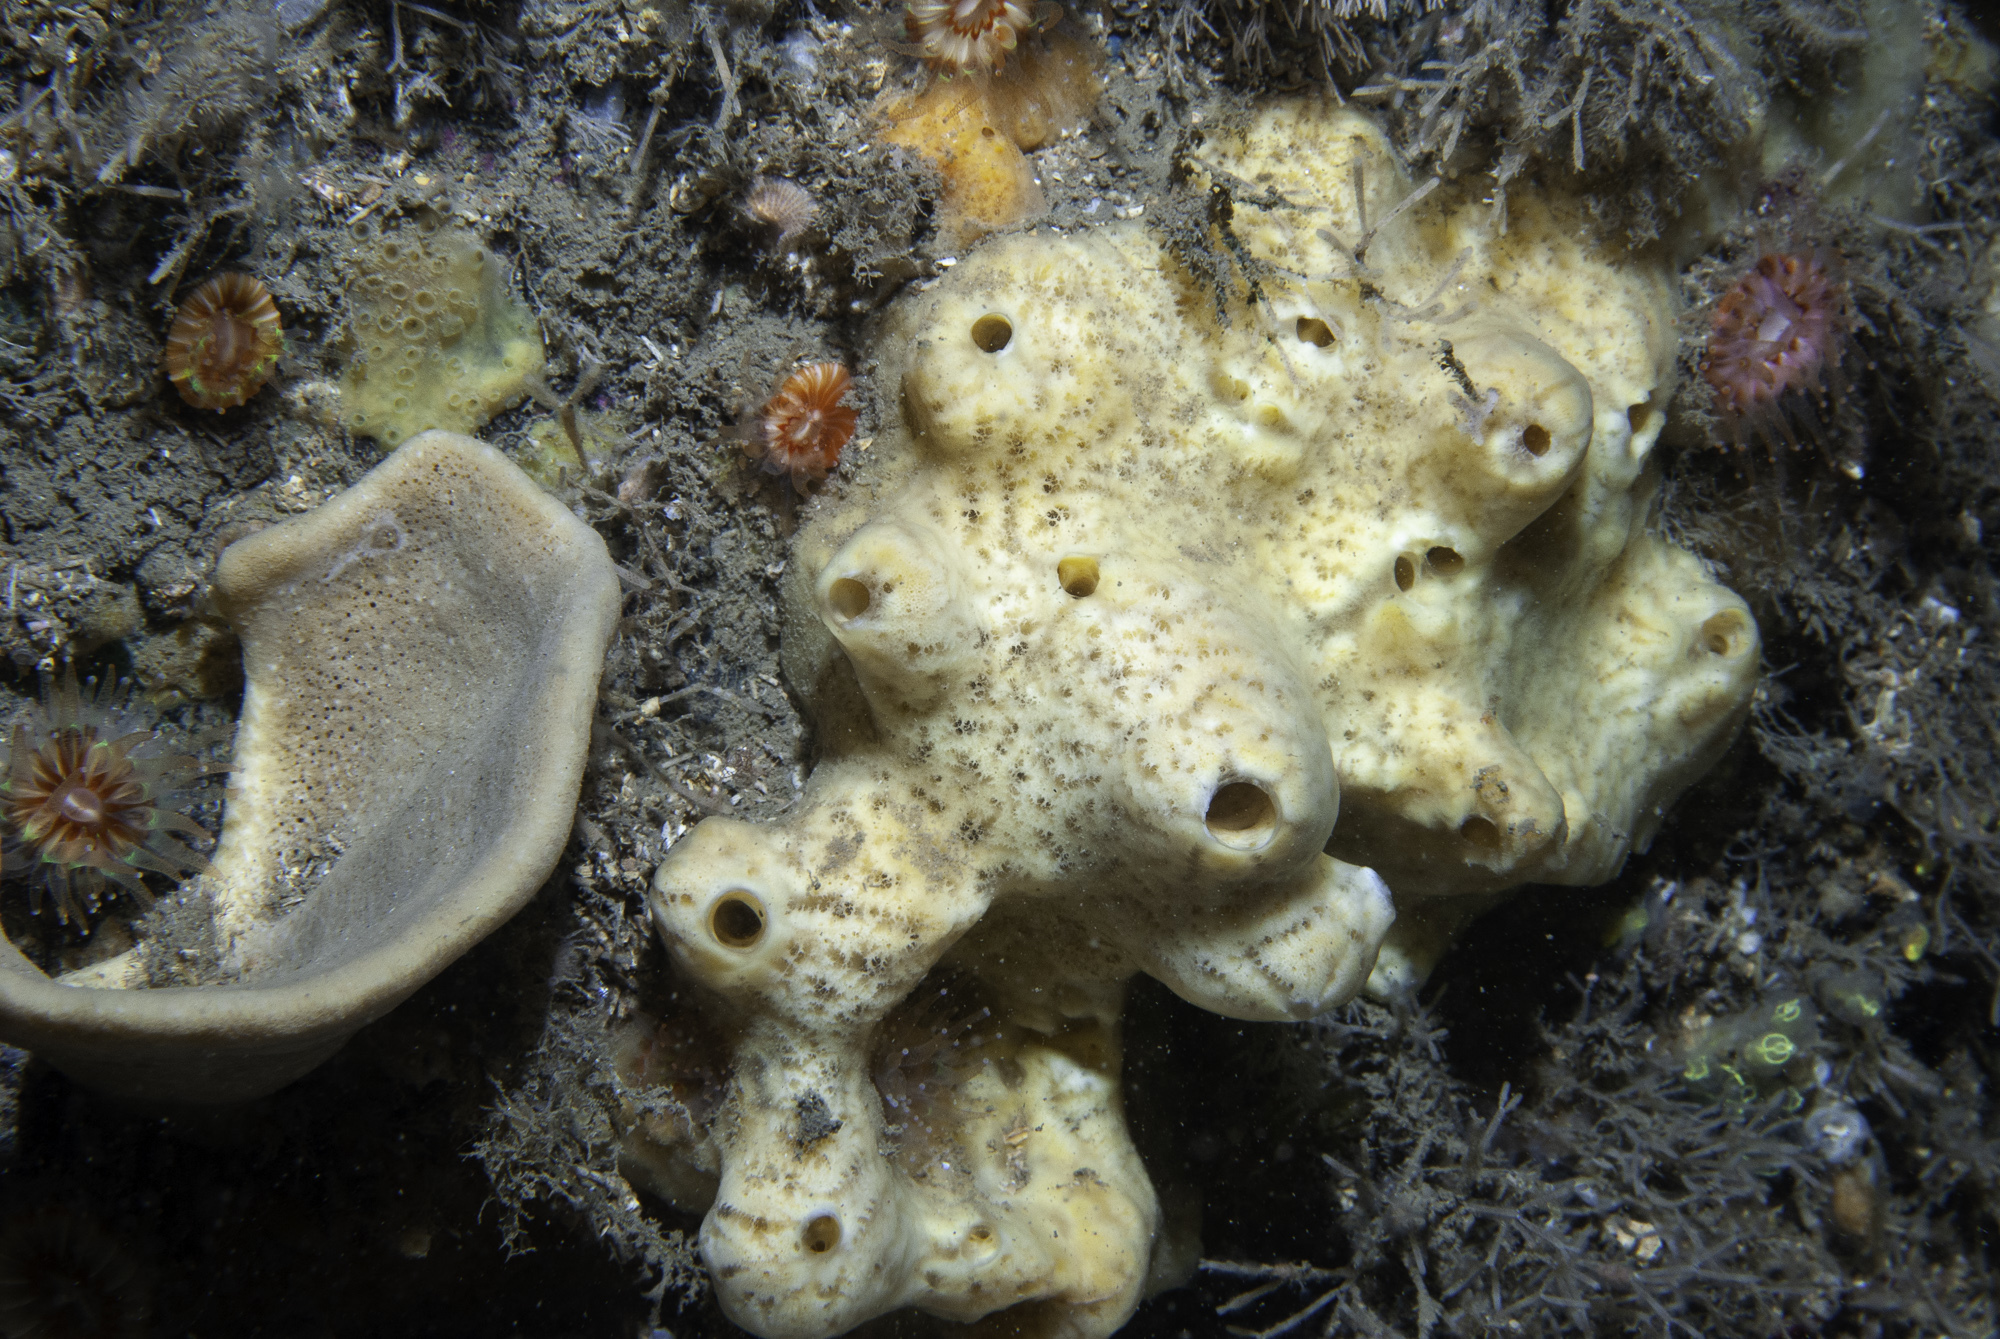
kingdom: Animalia
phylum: Porifera
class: Demospongiae
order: Poecilosclerida
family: Myxillidae
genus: Myxilla
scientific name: Myxilla incrustans
